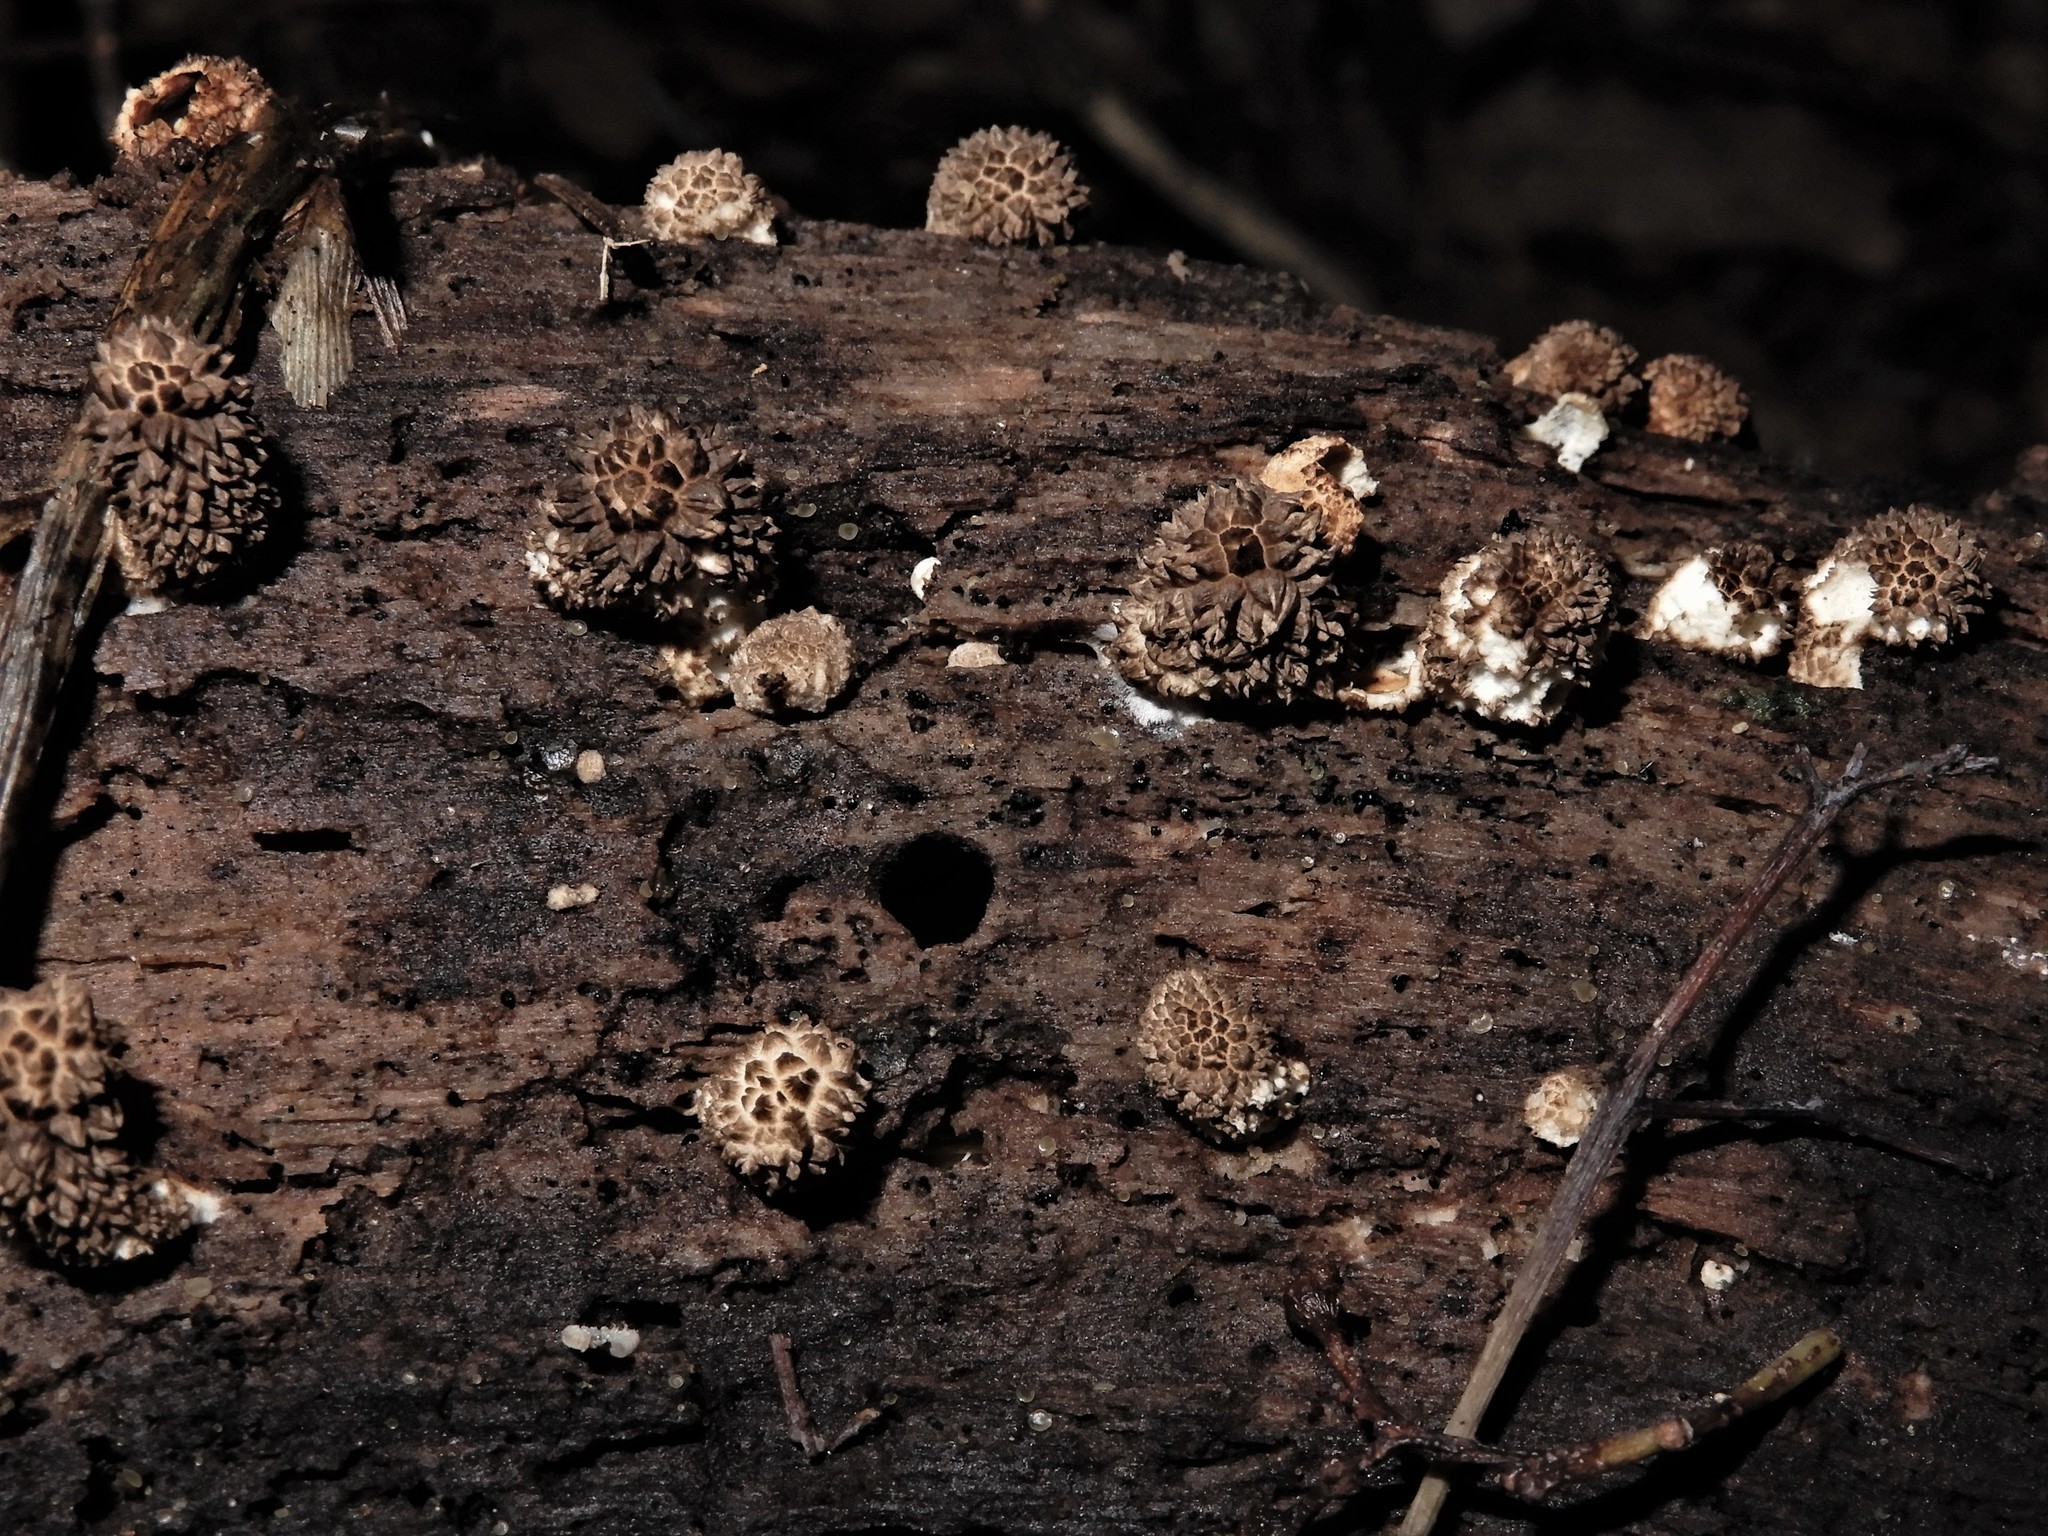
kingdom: Fungi
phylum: Basidiomycota
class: Agaricomycetes
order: Agaricales
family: Lycoperdaceae
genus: Lycoperdon
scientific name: Lycoperdon compactum
